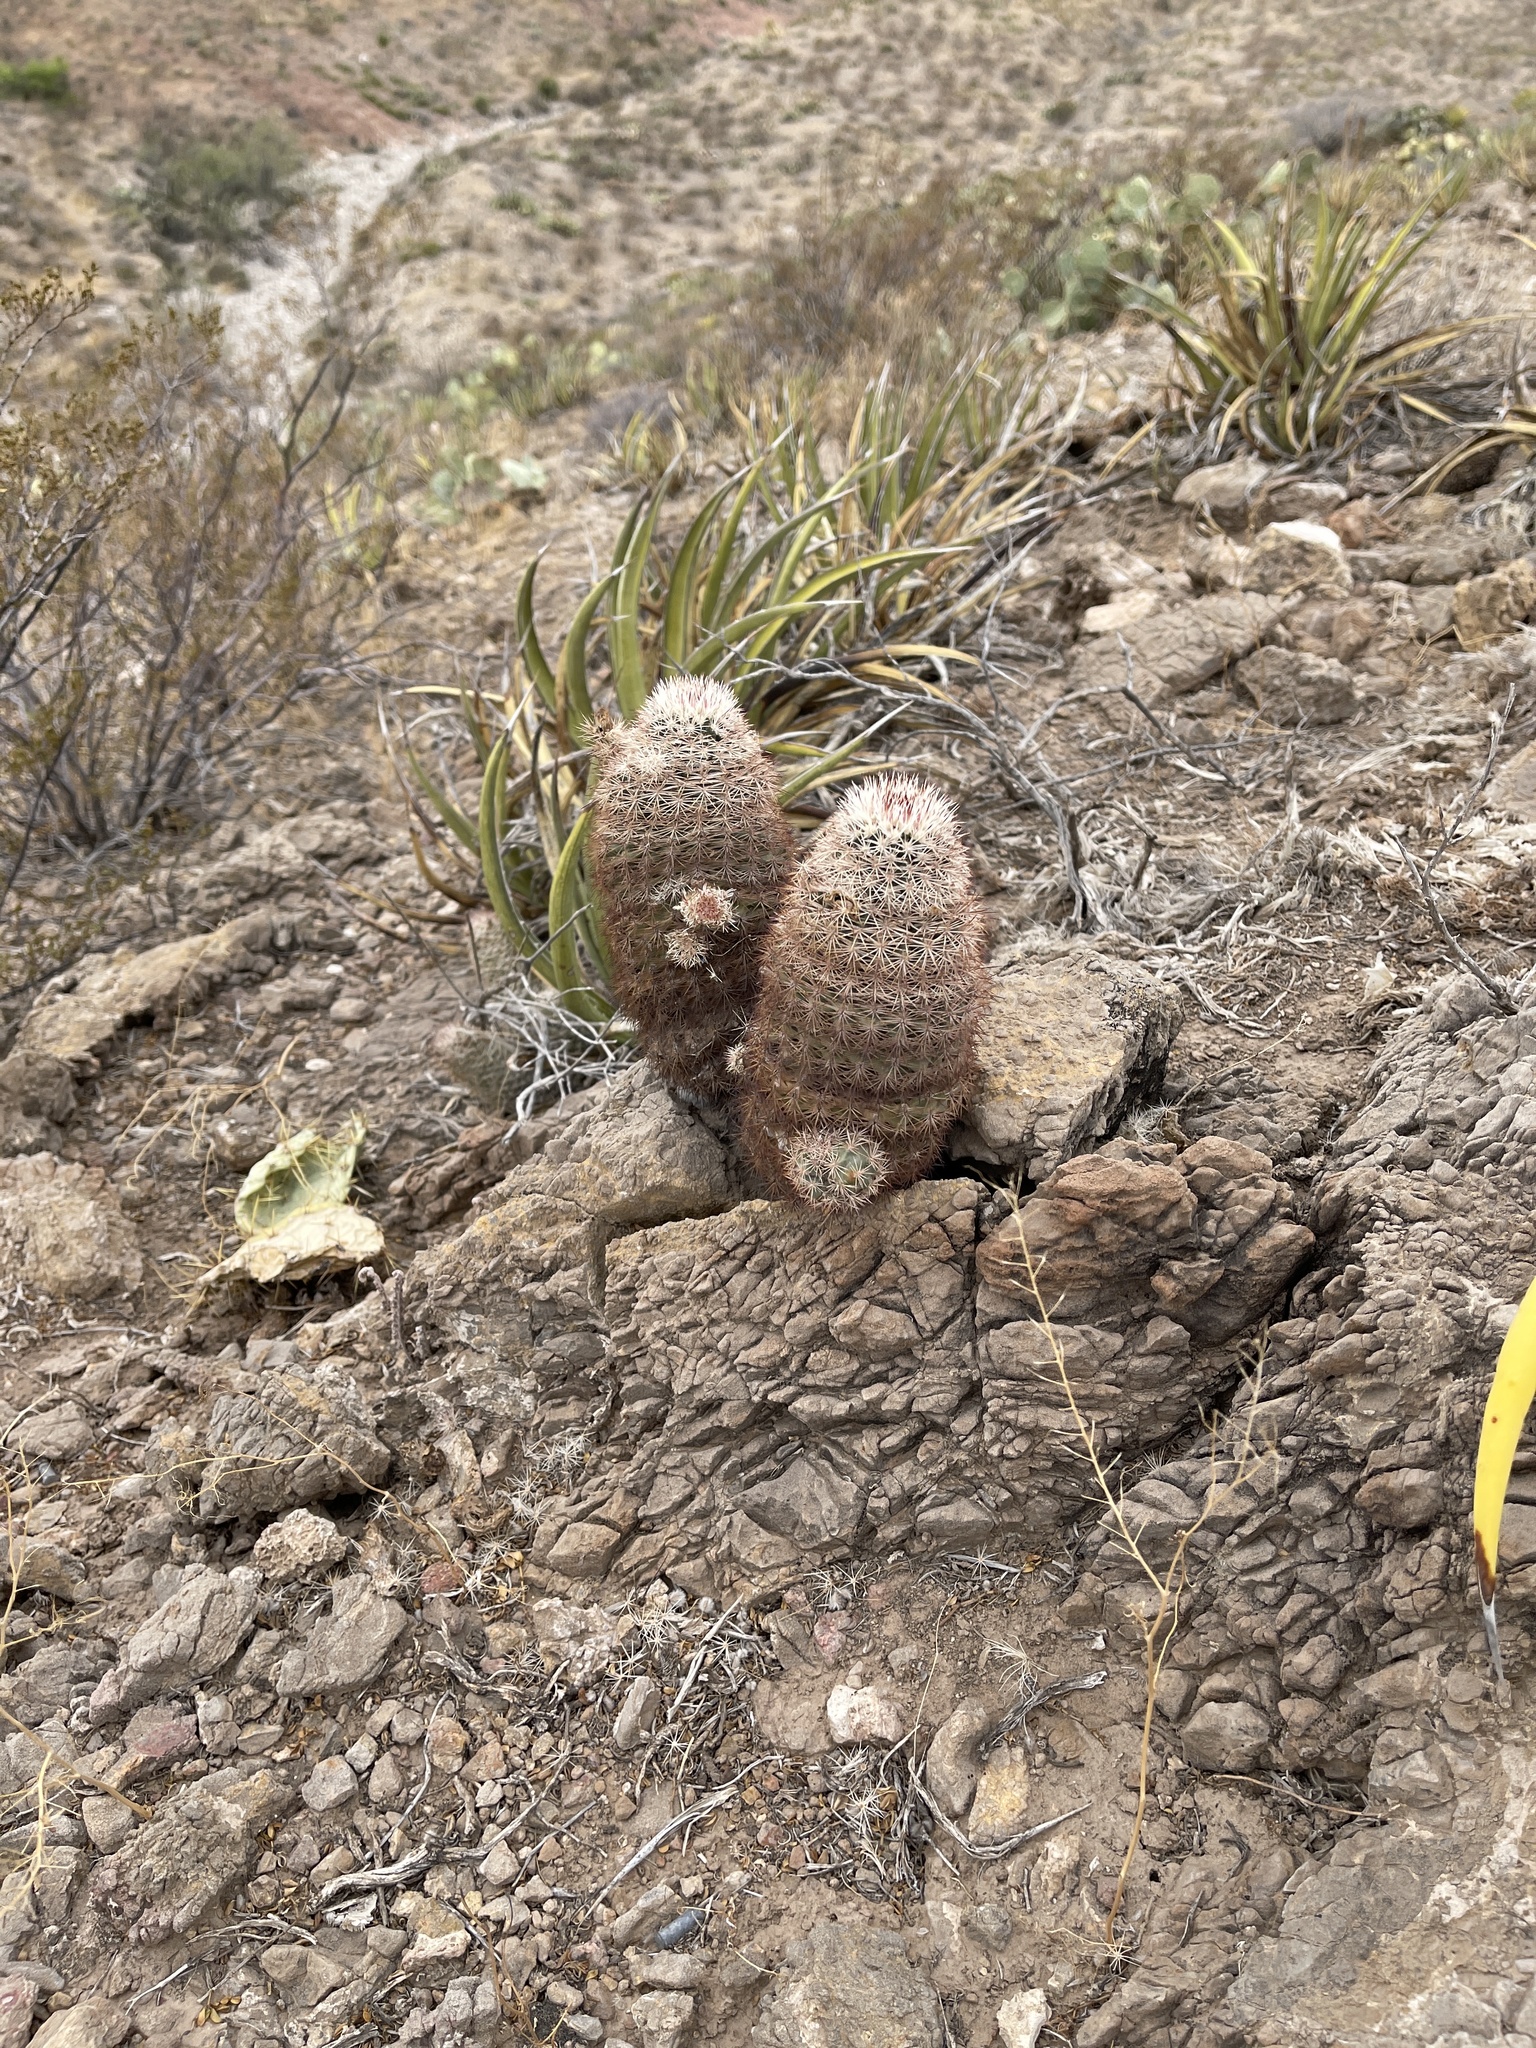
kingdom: Plantae
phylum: Tracheophyta
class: Magnoliopsida
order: Caryophyllales
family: Cactaceae
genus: Echinocereus
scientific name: Echinocereus dasyacanthus
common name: Spiny hedgehog cactus
